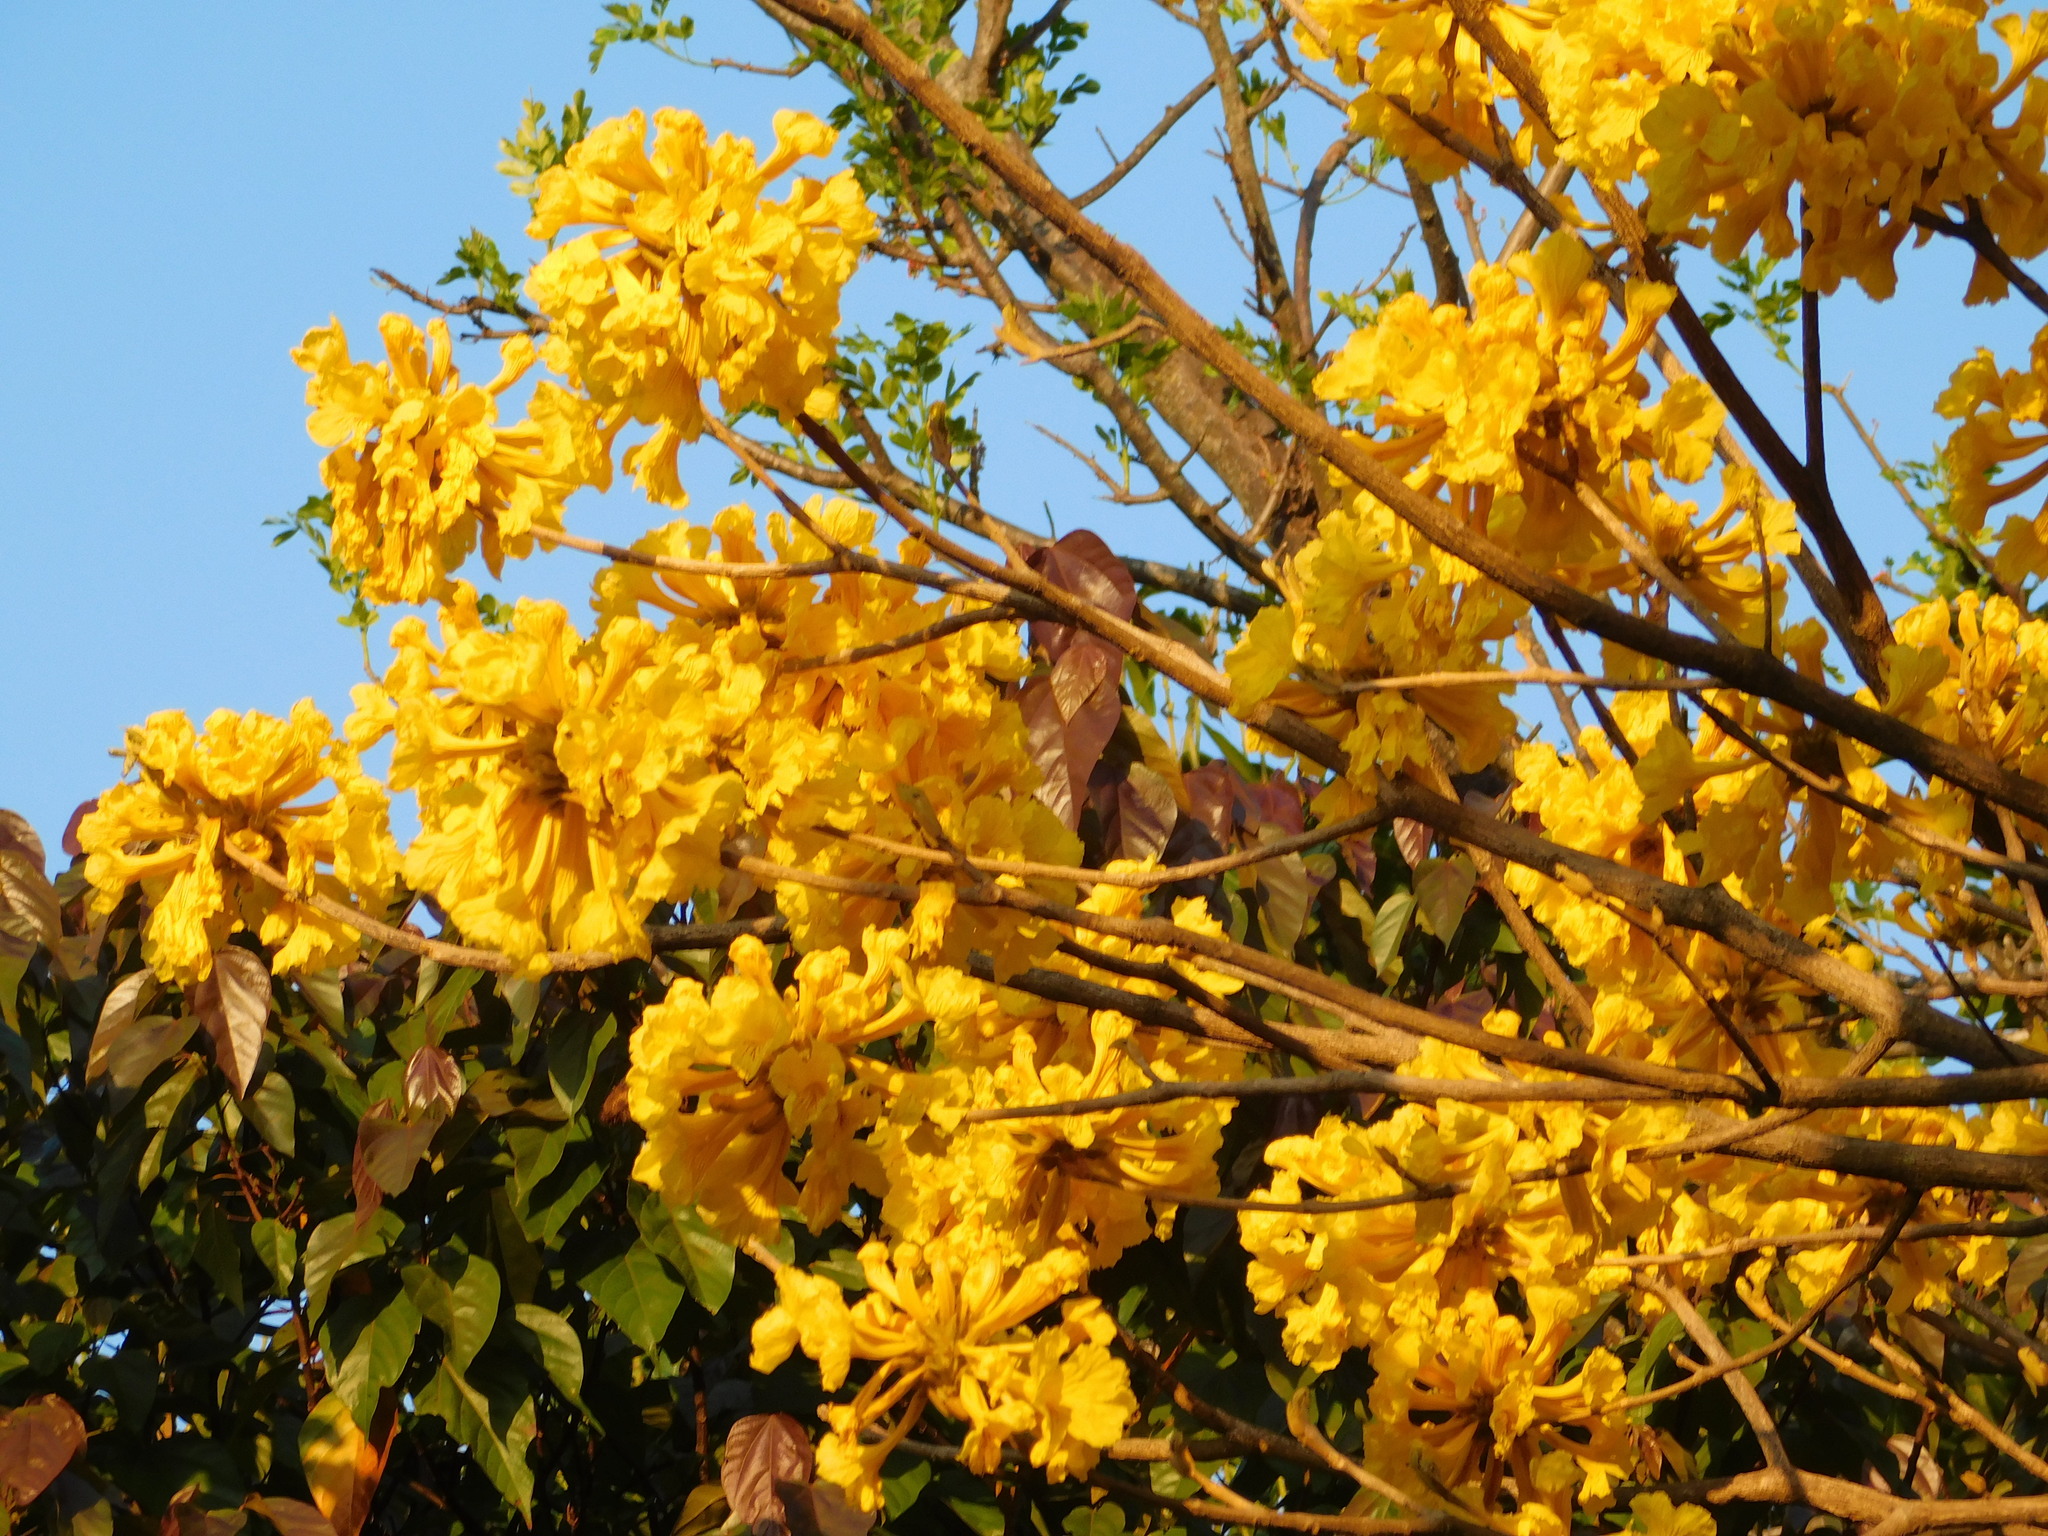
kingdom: Plantae
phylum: Tracheophyta
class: Magnoliopsida
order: Lamiales
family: Bignoniaceae
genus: Handroanthus
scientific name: Handroanthus ochraceus
